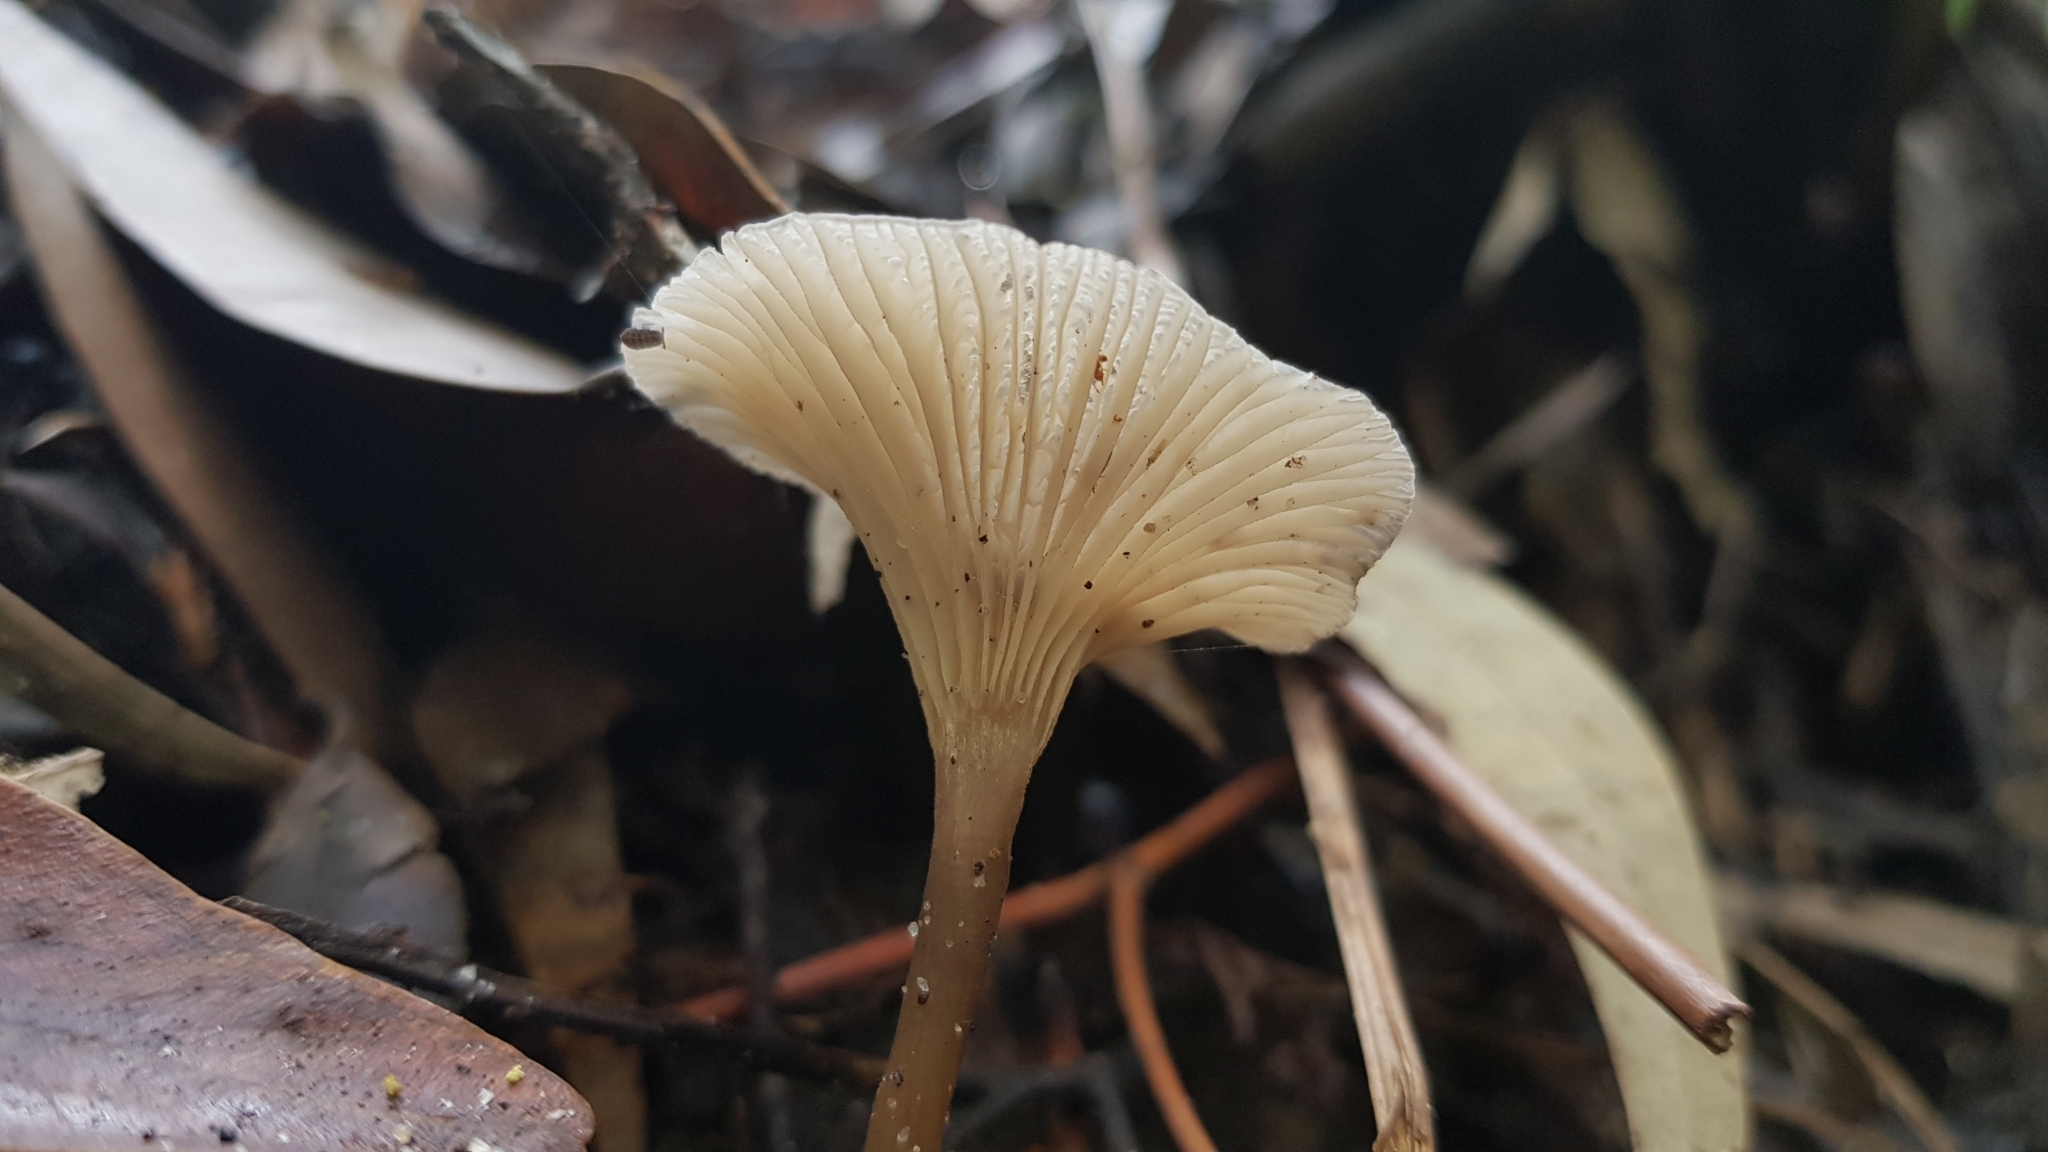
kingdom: Fungi
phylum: Basidiomycota
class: Agaricomycetes
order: Agaricales
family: Marasmiaceae
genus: Trogia
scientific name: Trogia straminea
